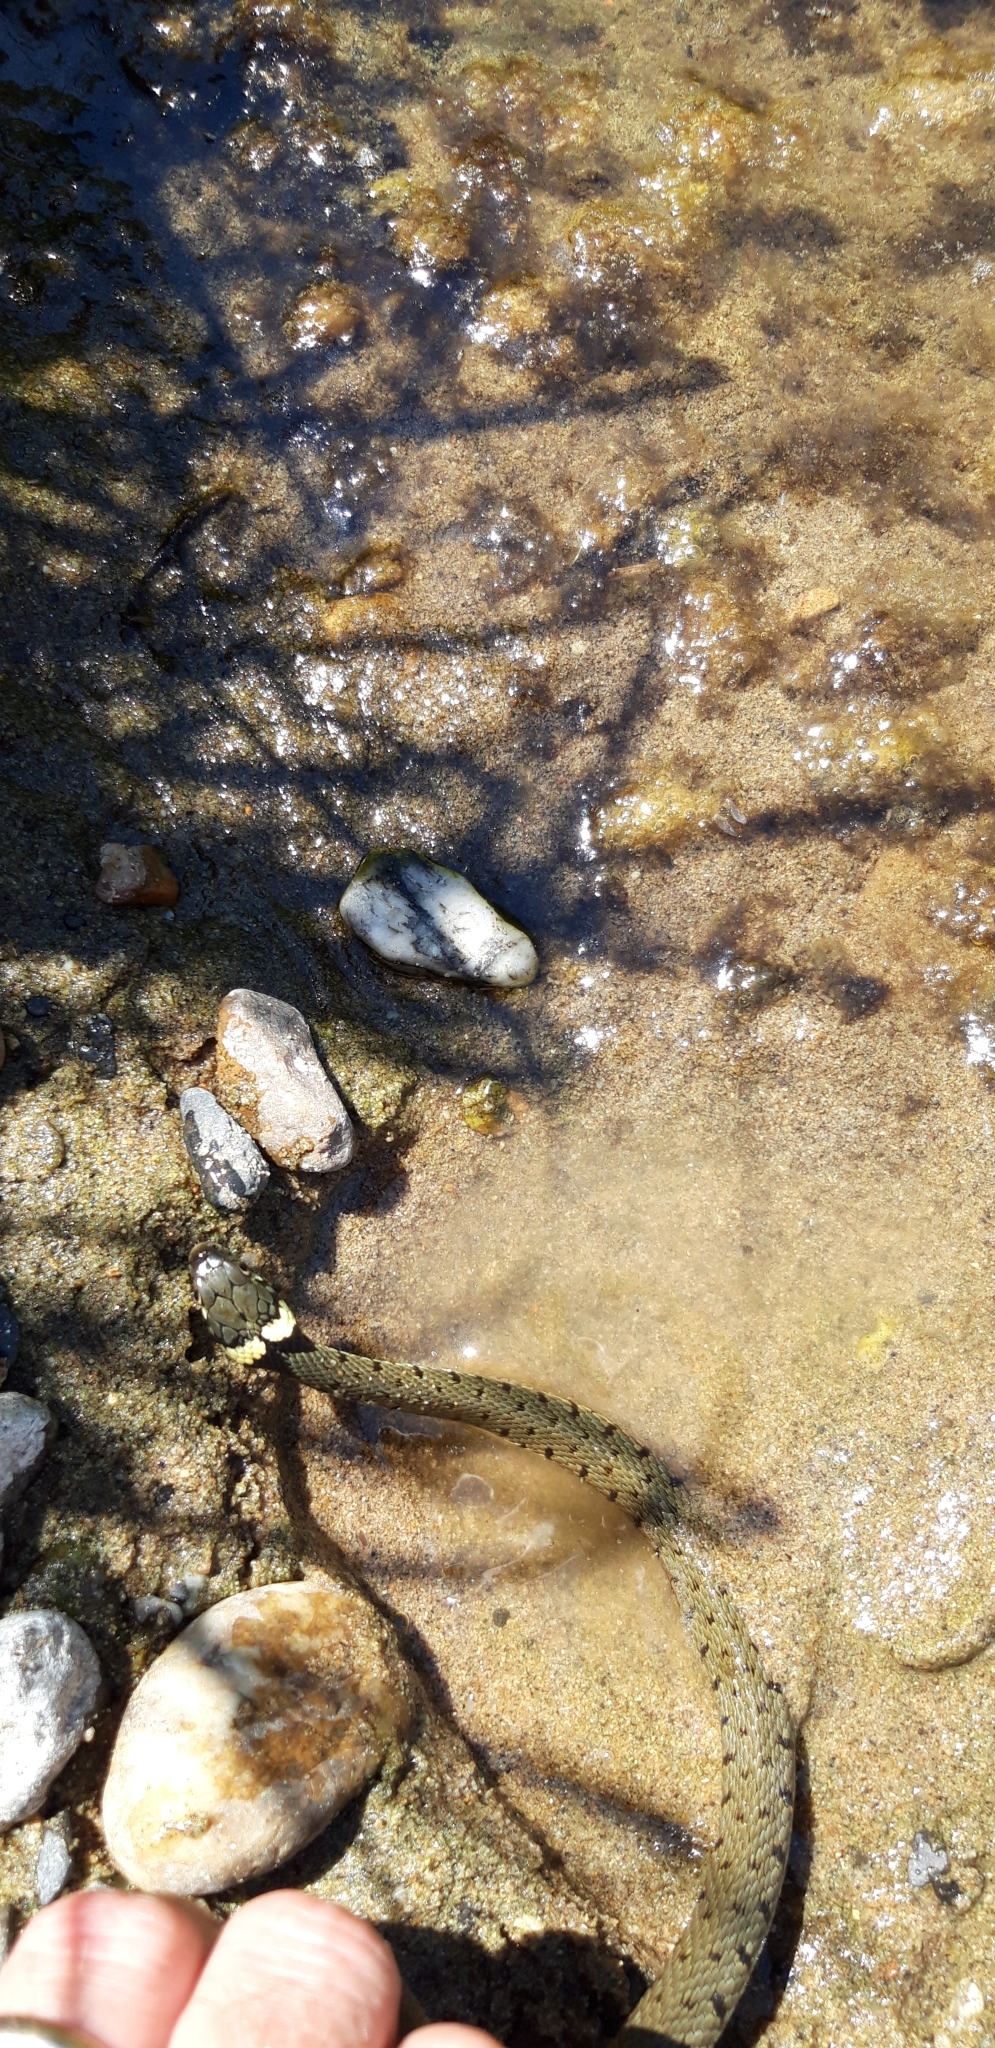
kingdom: Animalia
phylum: Chordata
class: Squamata
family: Colubridae
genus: Natrix
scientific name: Natrix helvetica
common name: Banded grass snake
